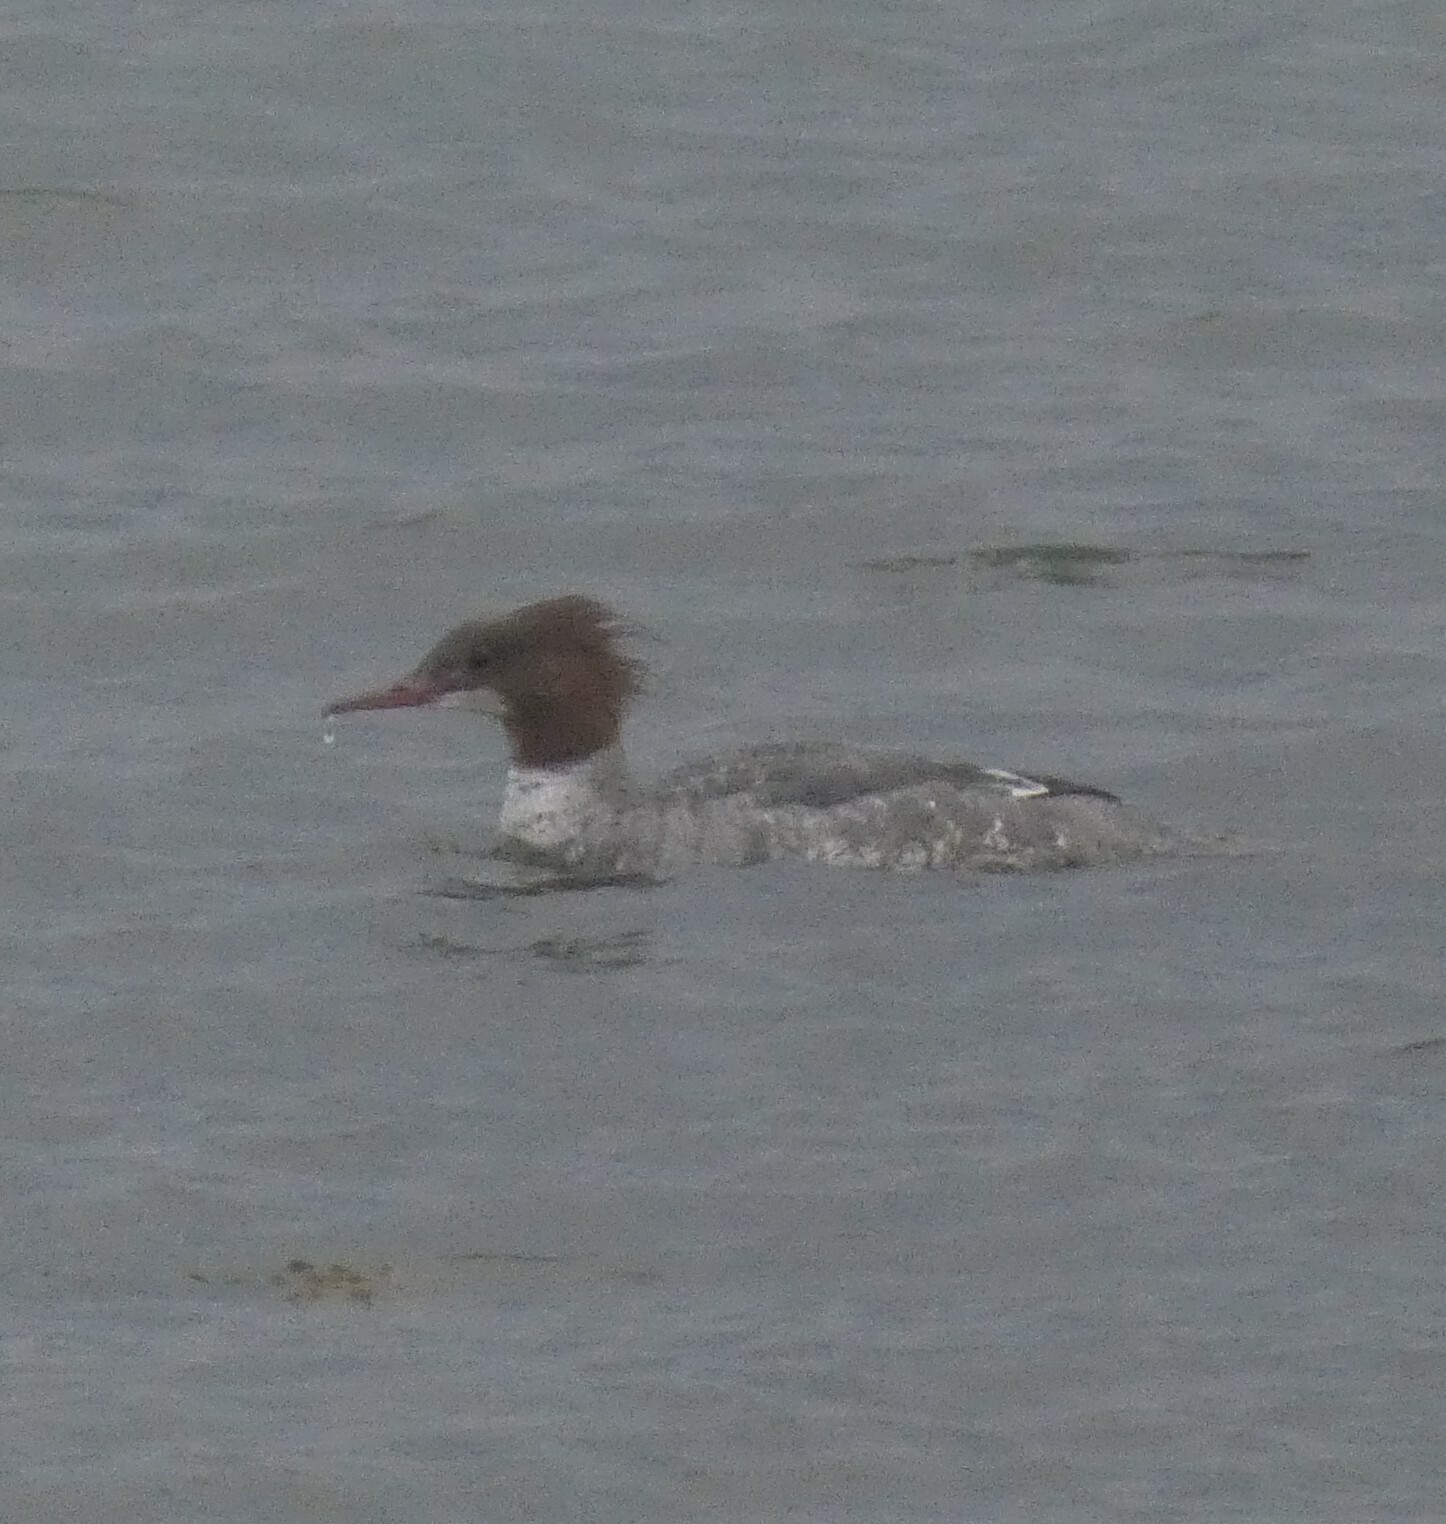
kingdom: Animalia
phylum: Chordata
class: Aves
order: Anseriformes
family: Anatidae
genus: Mergus
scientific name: Mergus merganser
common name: Common merganser
